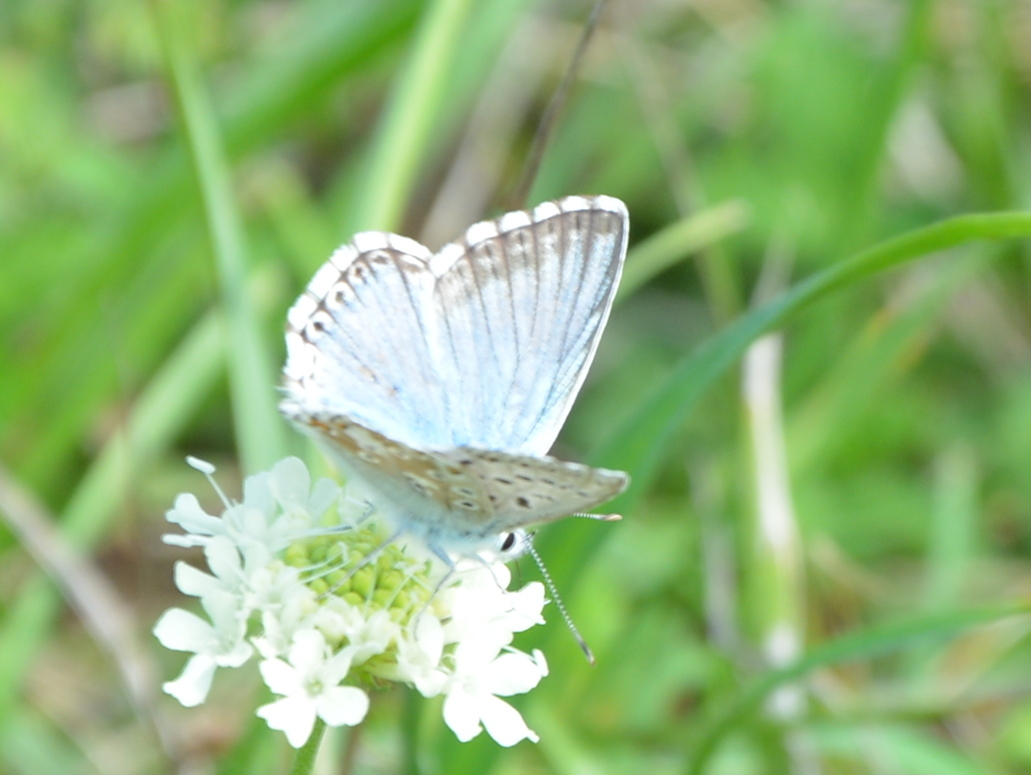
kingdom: Animalia
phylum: Arthropoda
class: Insecta
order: Lepidoptera
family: Lycaenidae
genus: Lysandra
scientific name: Lysandra coridon
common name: Chalkhill blue
